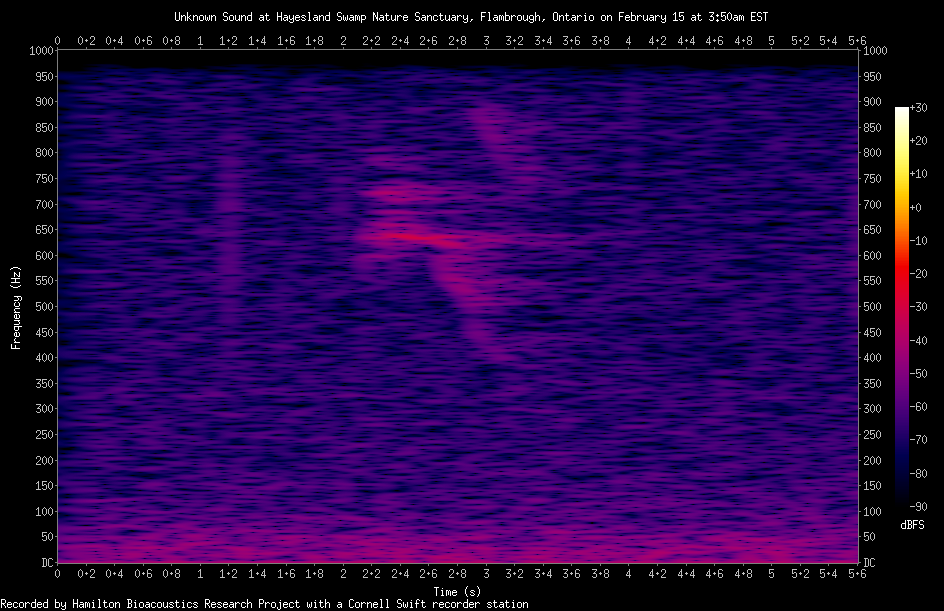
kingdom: Animalia
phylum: Chordata
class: Aves
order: Strigiformes
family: Strigidae
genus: Strix
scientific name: Strix varia
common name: Barred owl
